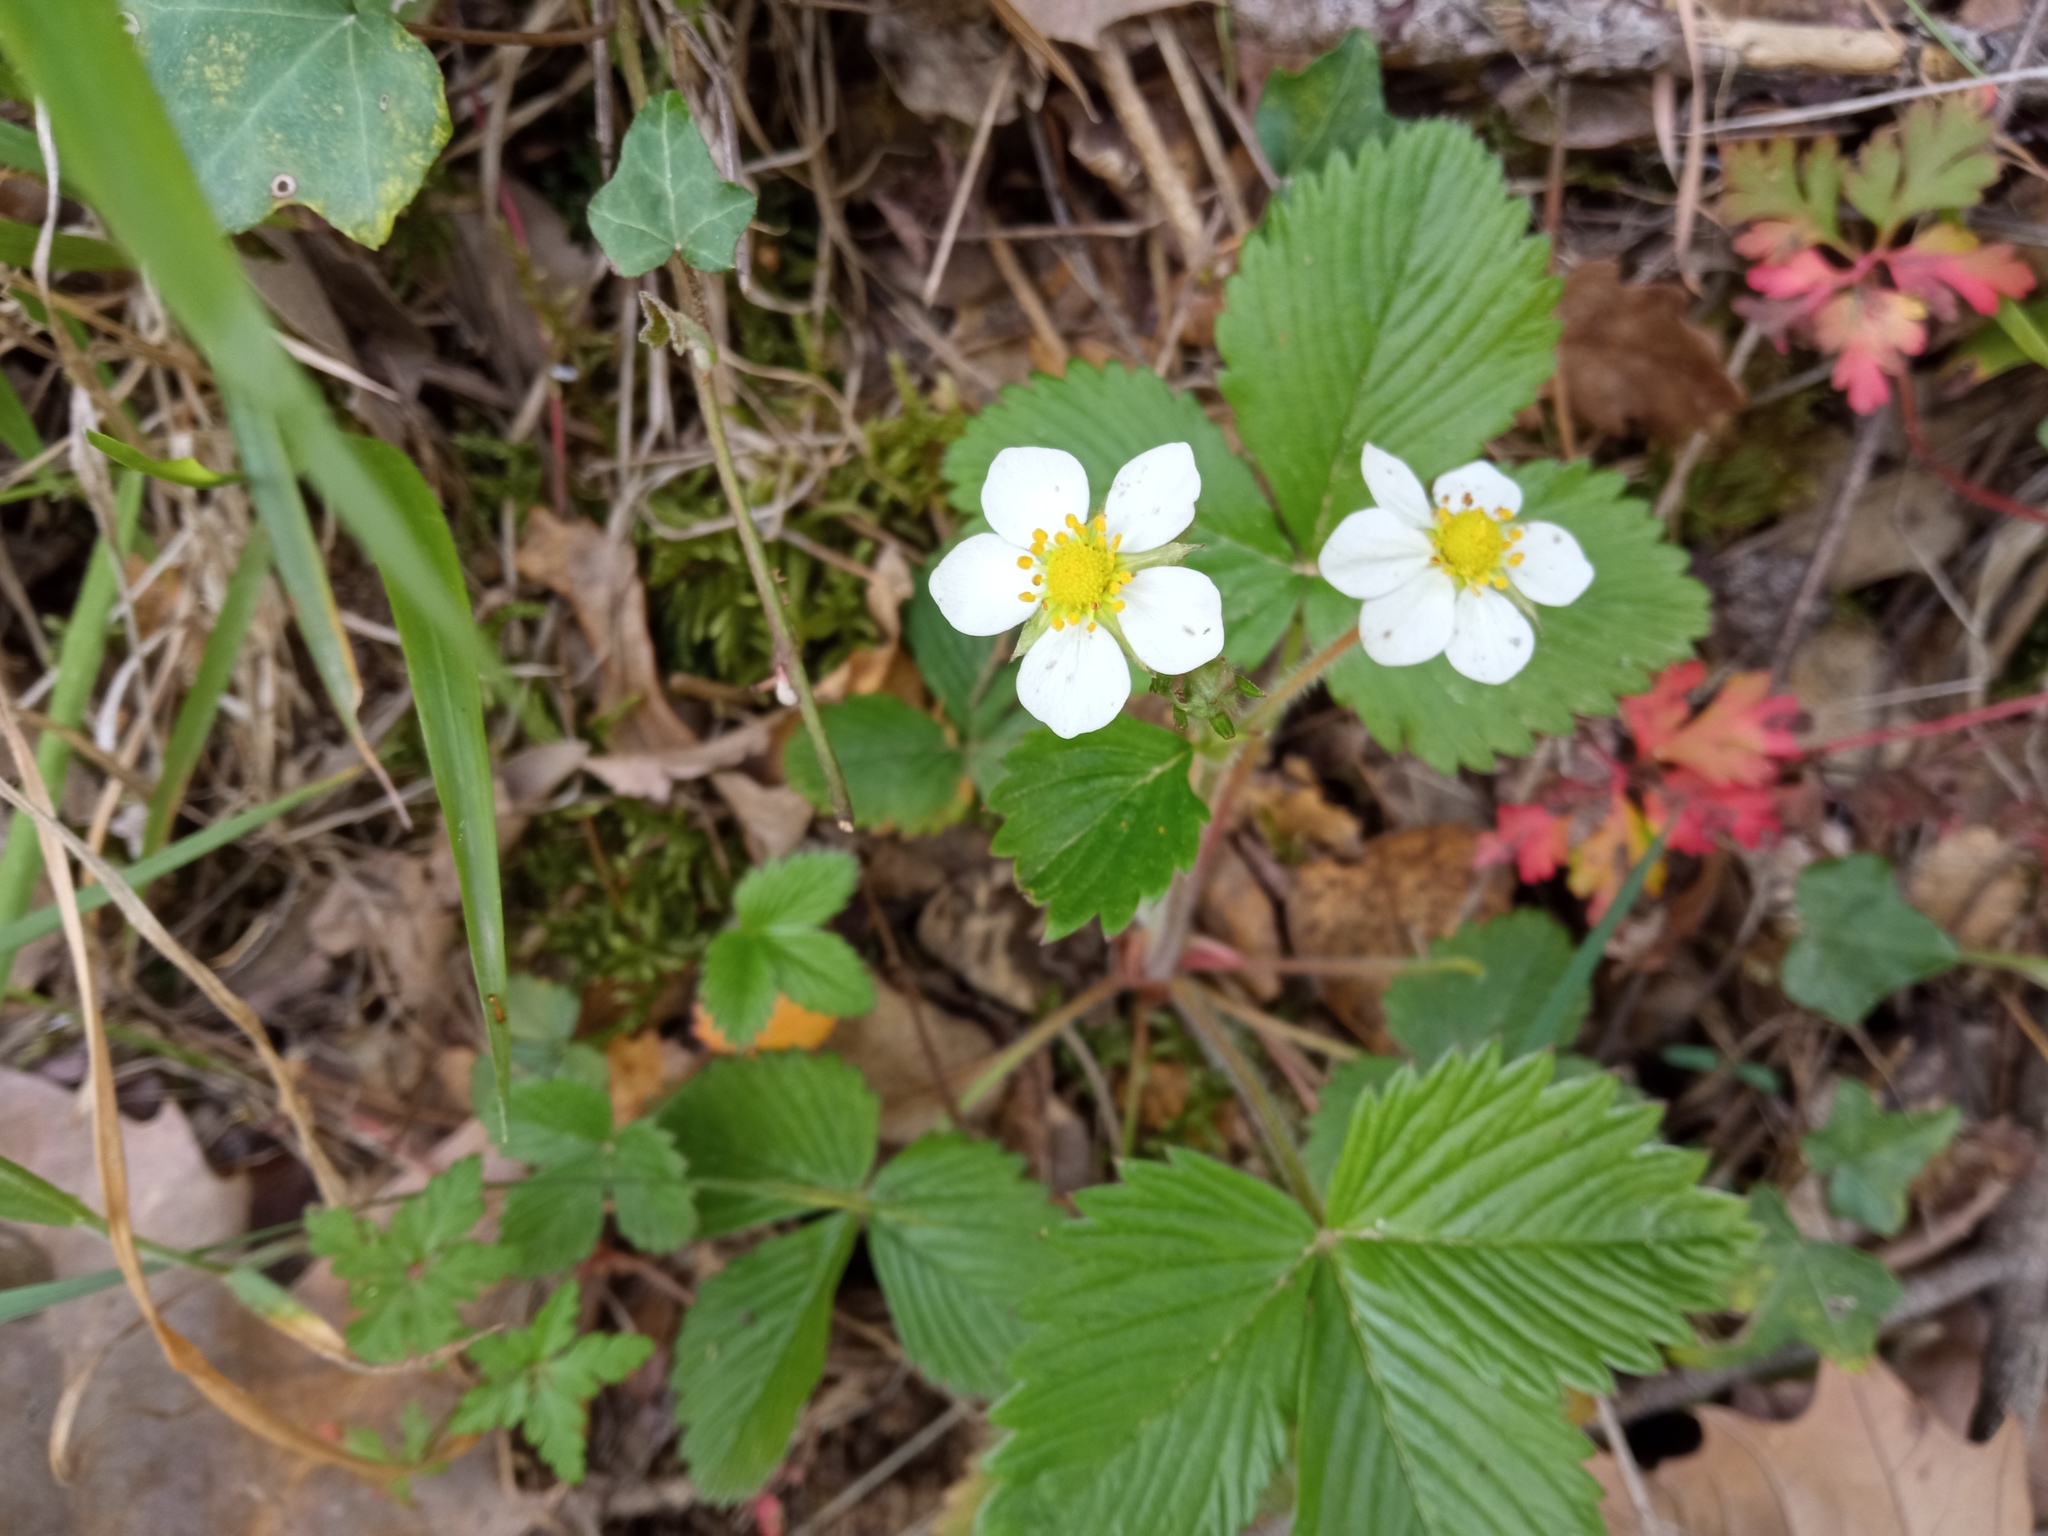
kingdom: Plantae
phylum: Tracheophyta
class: Magnoliopsida
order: Rosales
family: Rosaceae
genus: Fragaria
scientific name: Fragaria vesca
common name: Wild strawberry
